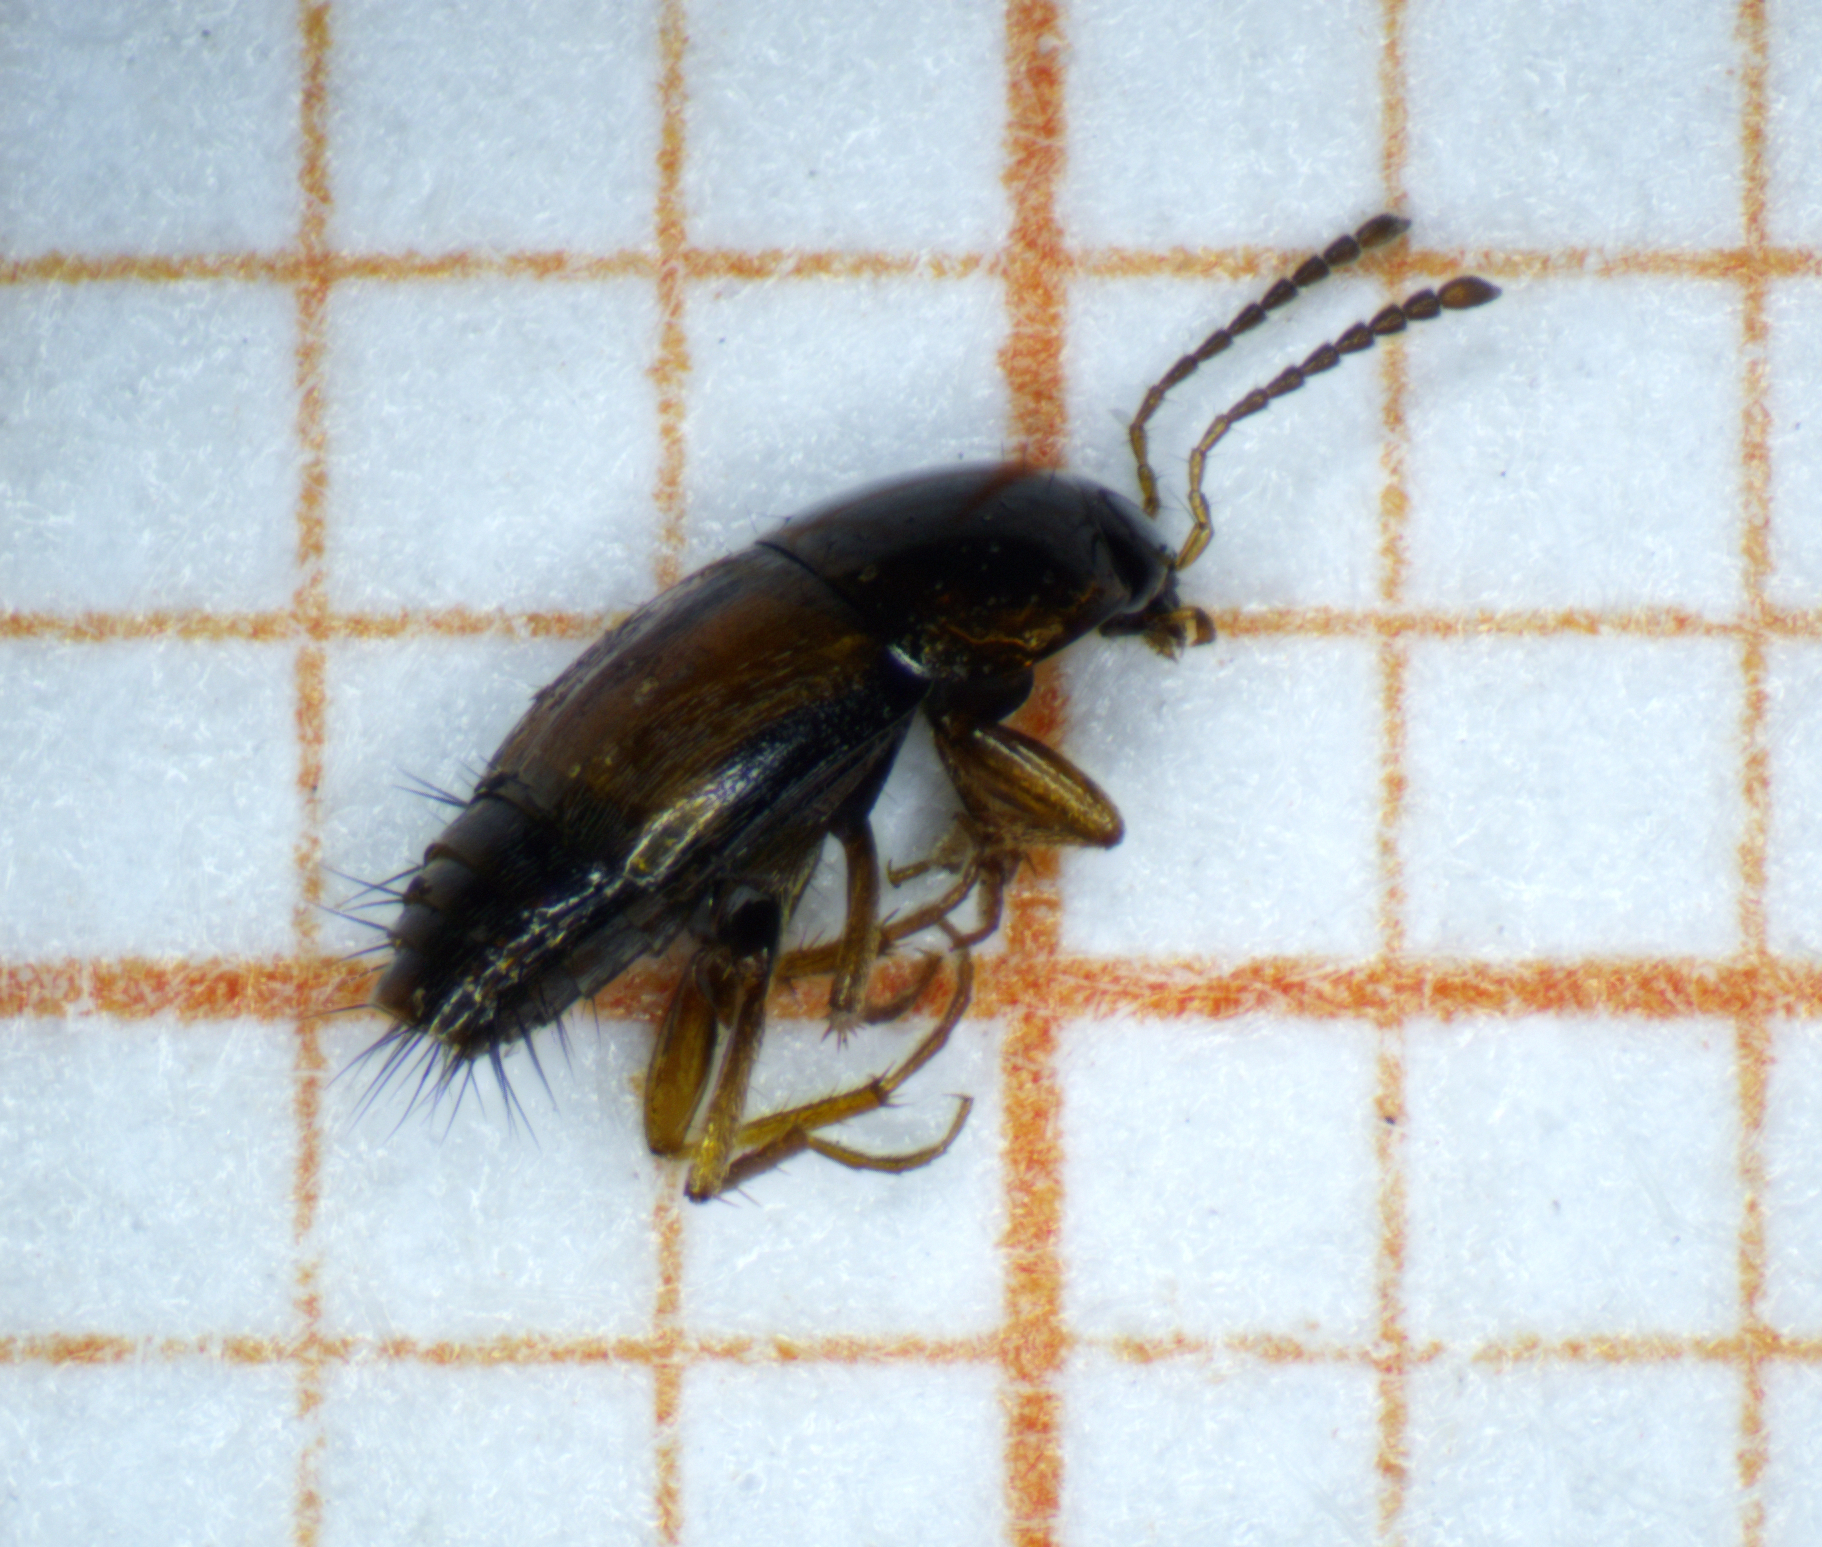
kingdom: Animalia
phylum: Arthropoda
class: Insecta
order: Coleoptera
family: Staphylinidae
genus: Tachyporus
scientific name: Tachyporus hypnorum
